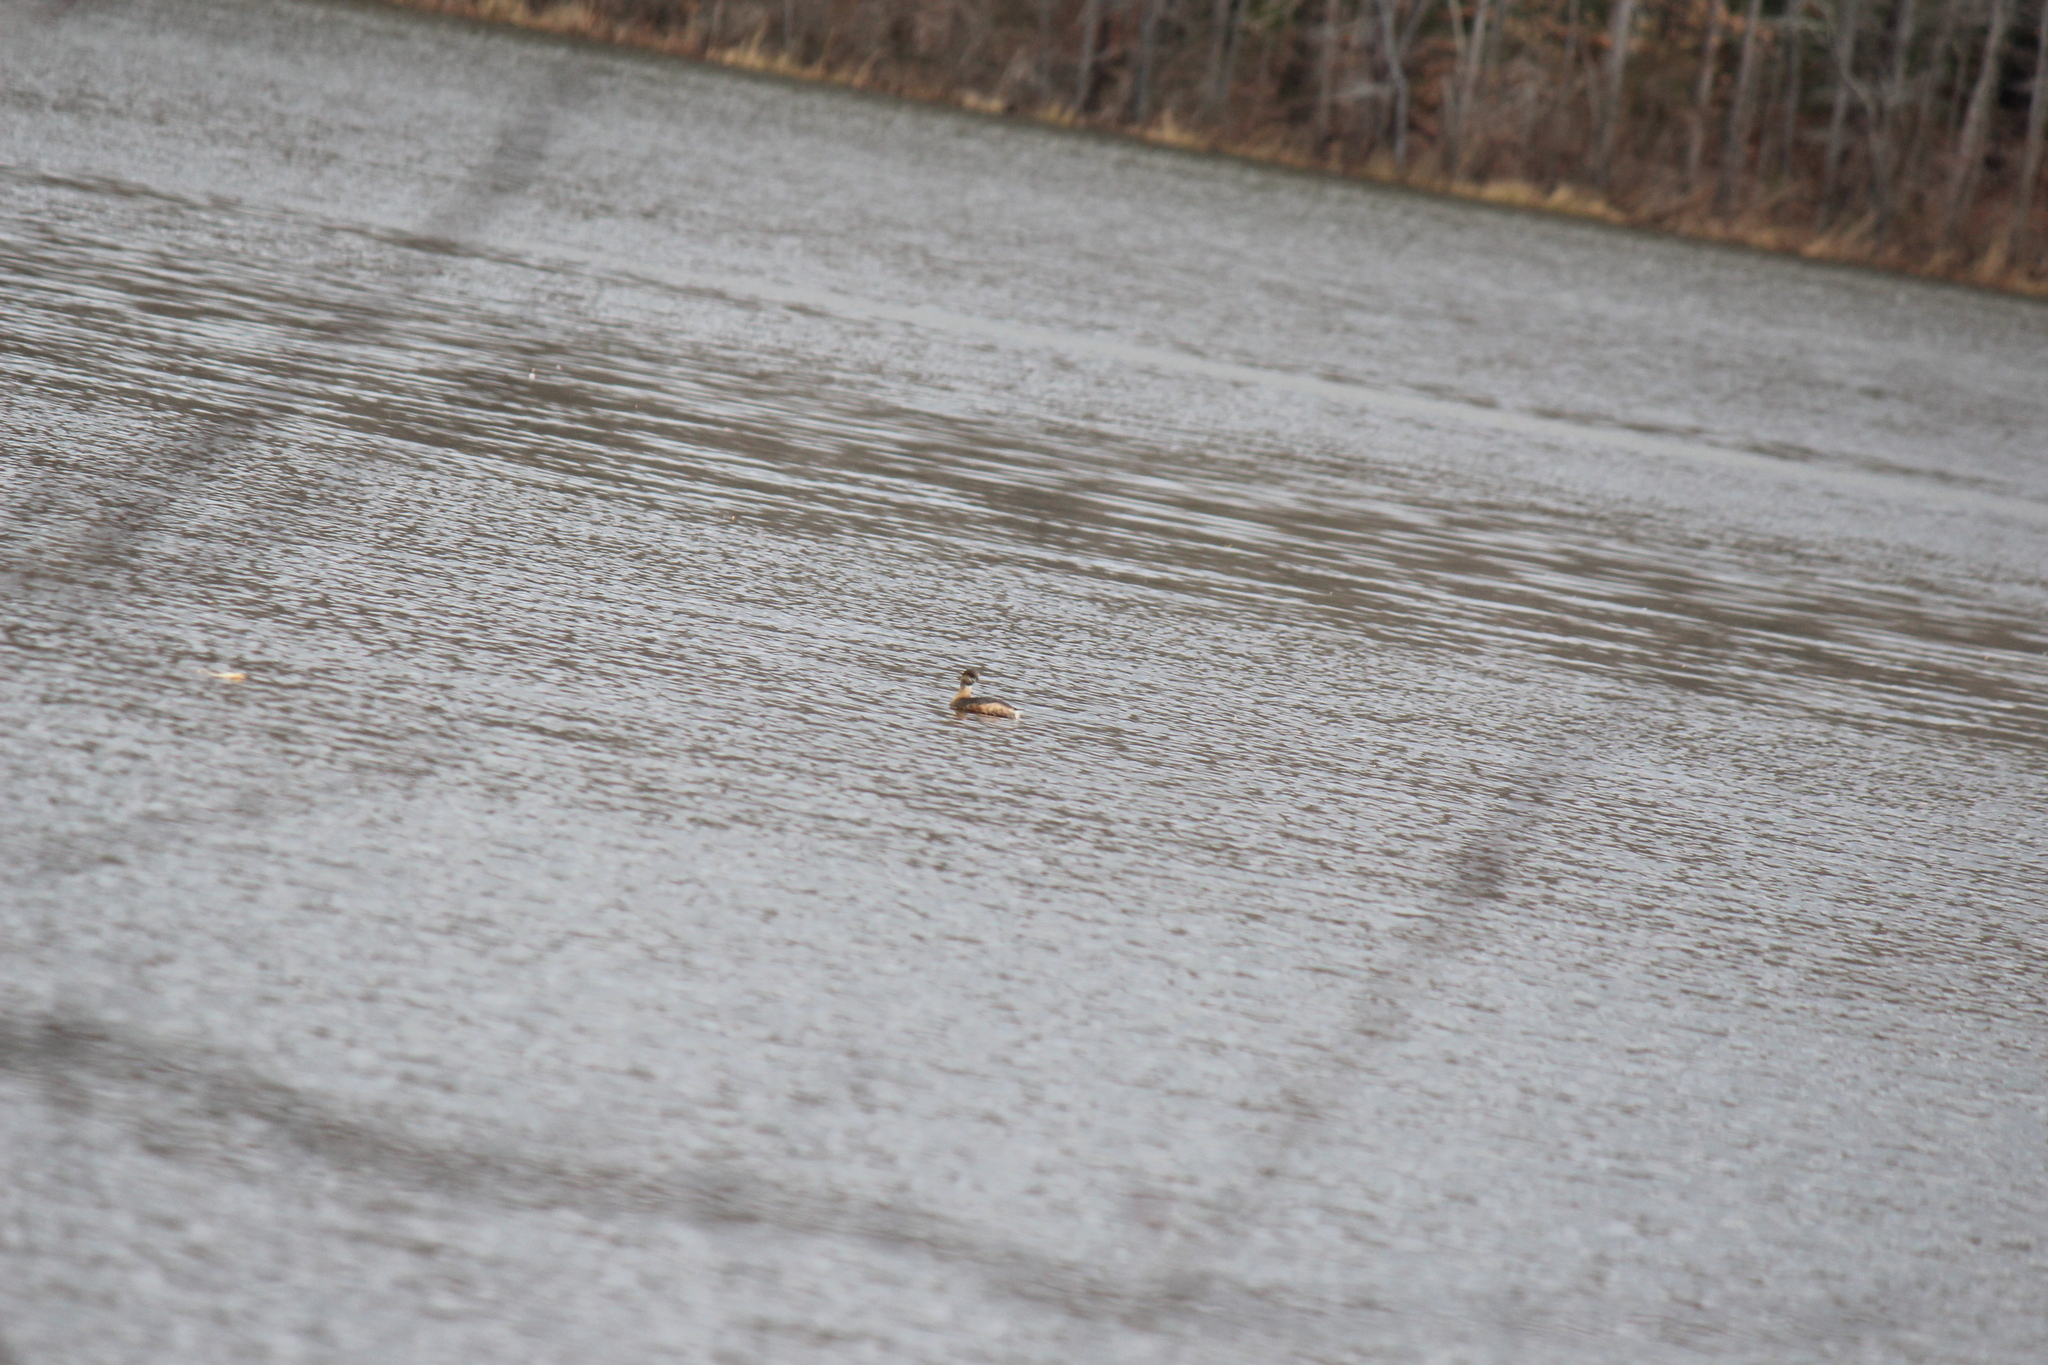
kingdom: Animalia
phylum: Chordata
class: Aves
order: Podicipediformes
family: Podicipedidae
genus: Podilymbus
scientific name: Podilymbus podiceps
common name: Pied-billed grebe
